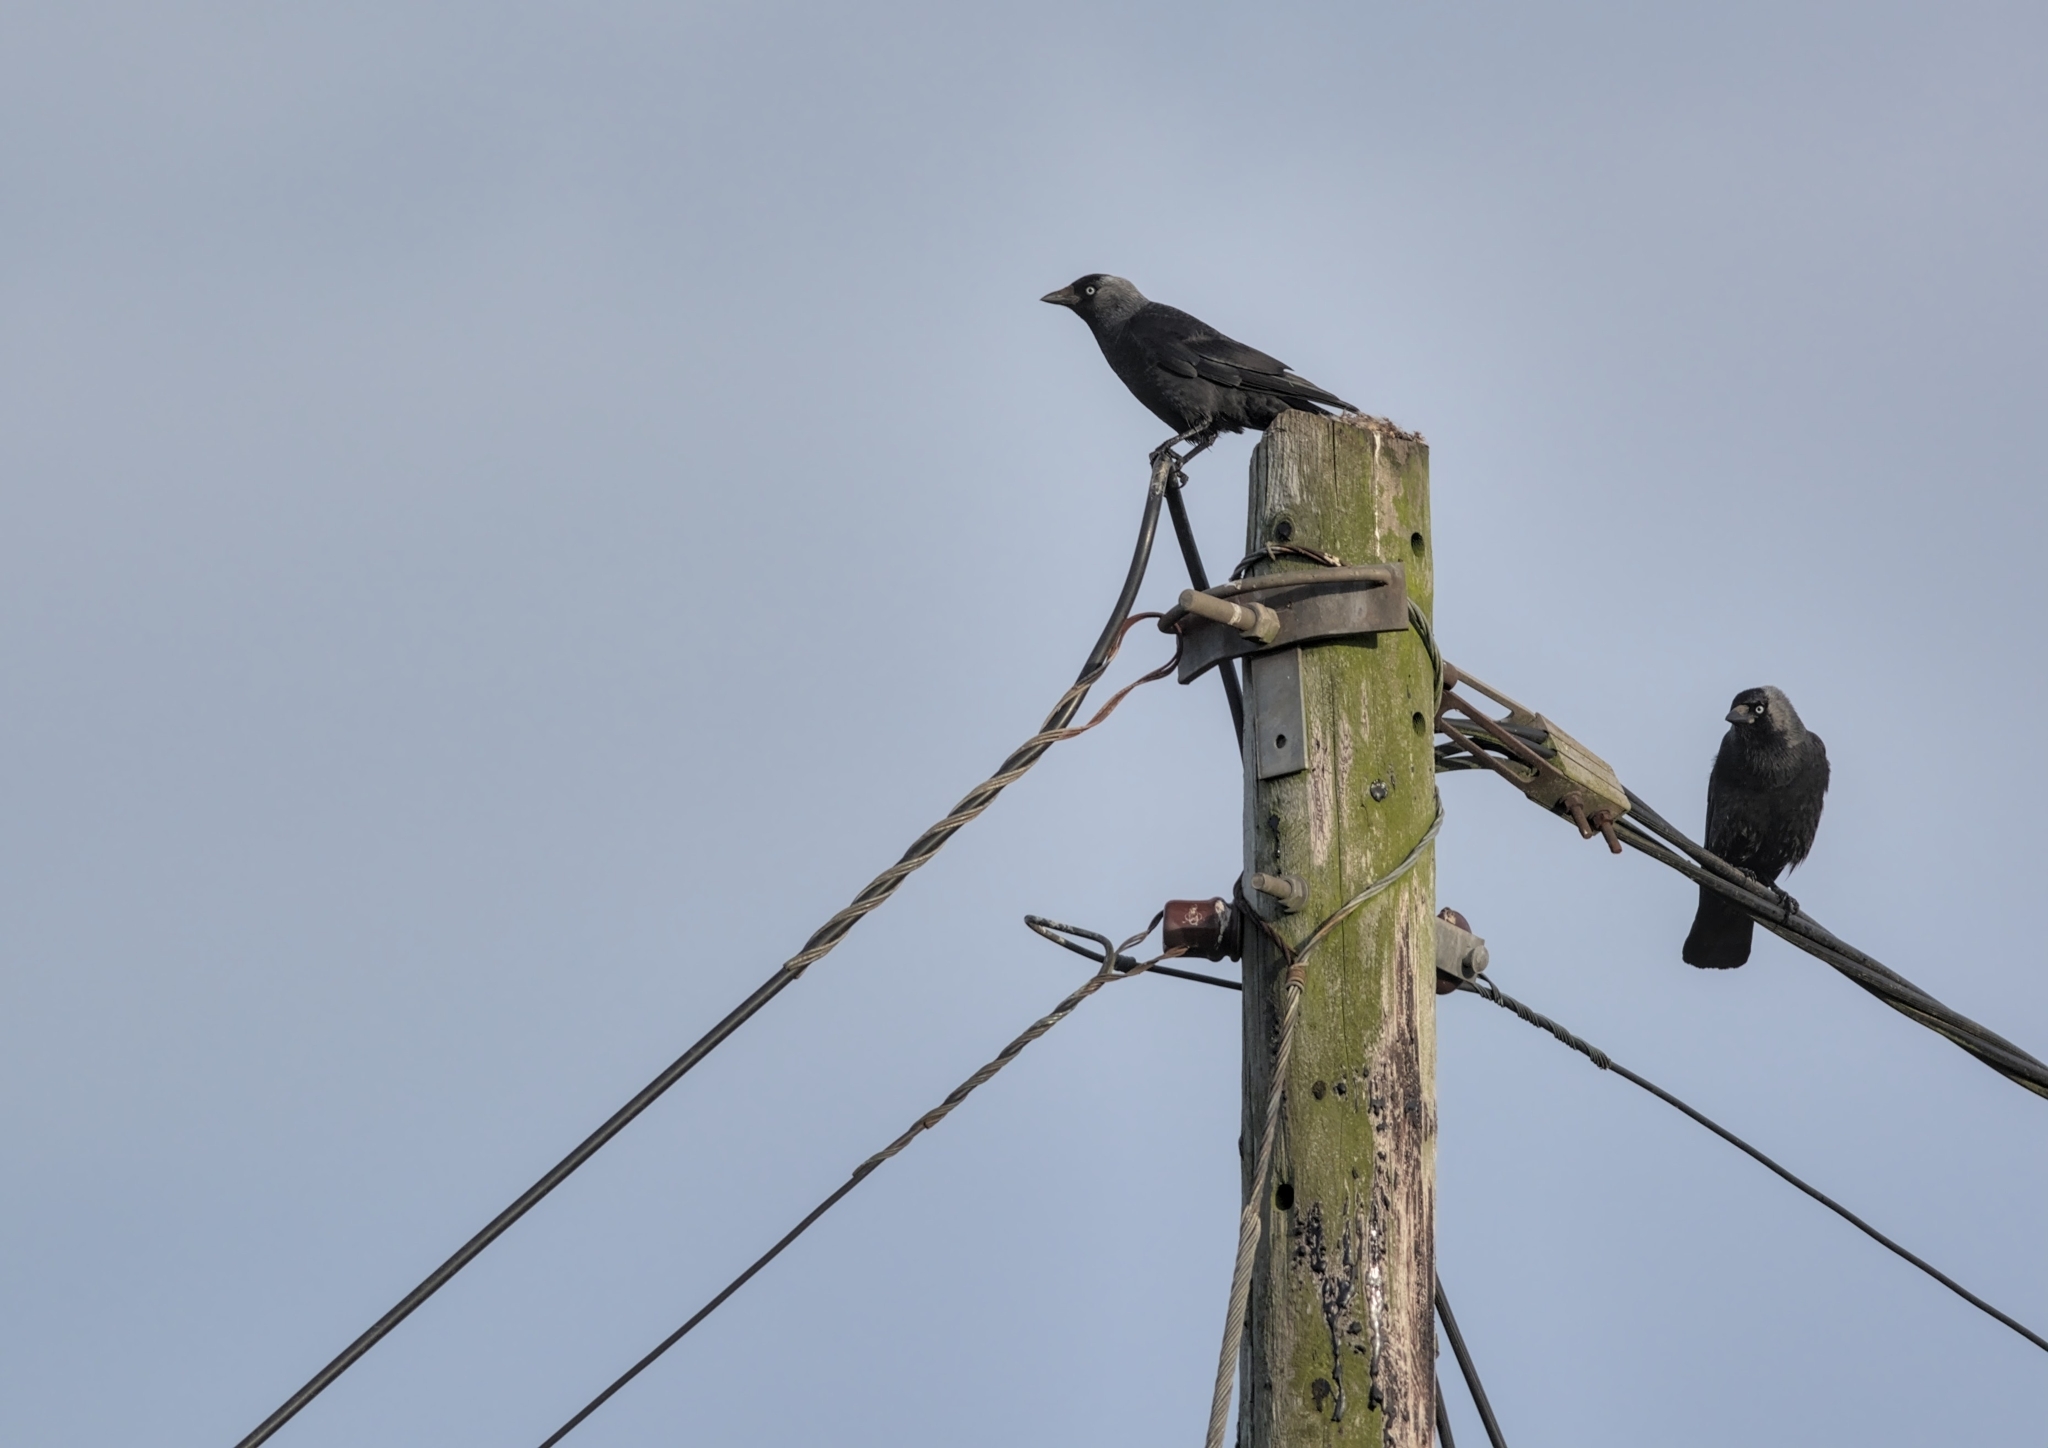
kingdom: Animalia
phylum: Chordata
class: Aves
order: Passeriformes
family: Corvidae
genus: Coloeus
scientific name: Coloeus monedula
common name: Western jackdaw
